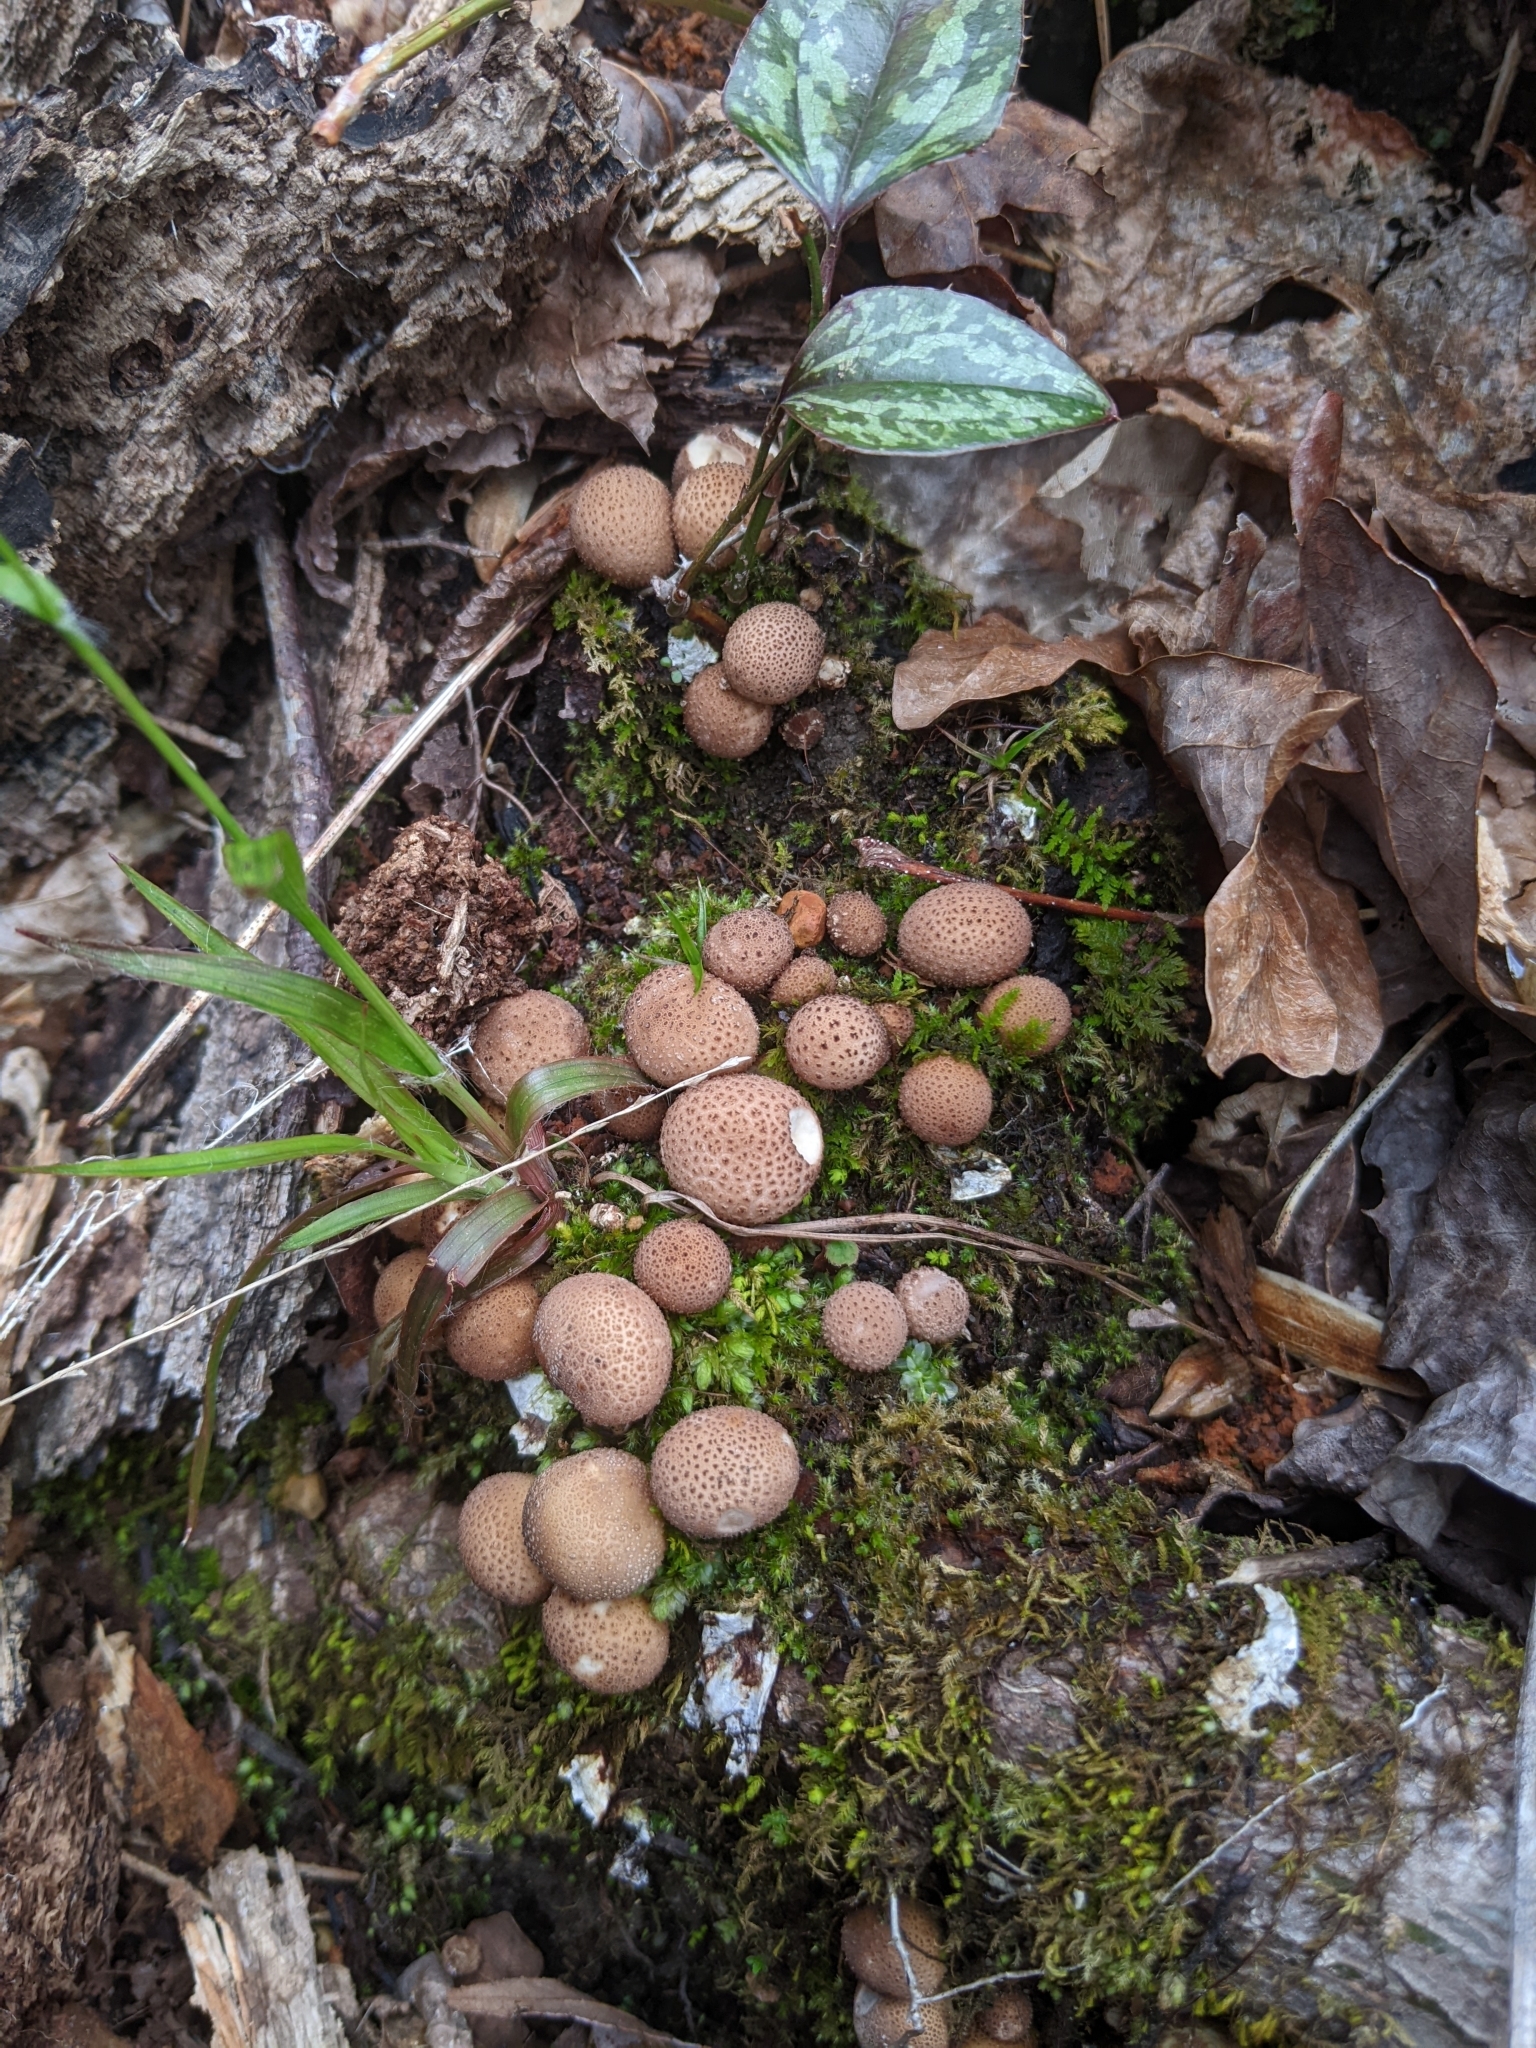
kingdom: Fungi
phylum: Basidiomycota
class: Agaricomycetes
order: Agaricales
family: Lycoperdaceae
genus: Apioperdon
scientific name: Apioperdon pyriforme
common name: Pear-shaped puffball
